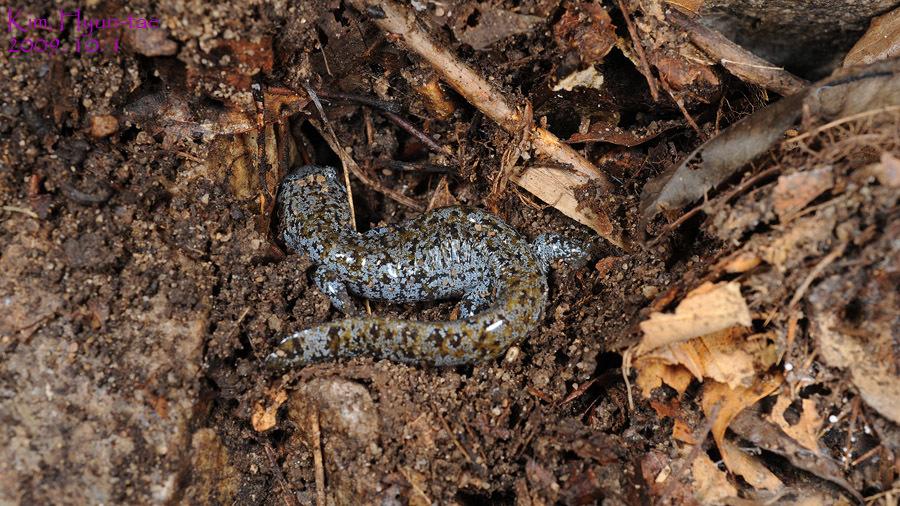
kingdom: Animalia
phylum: Chordata
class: Amphibia
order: Caudata
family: Hynobiidae
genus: Hynobius
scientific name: Hynobius leechii
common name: Gensan salamander
